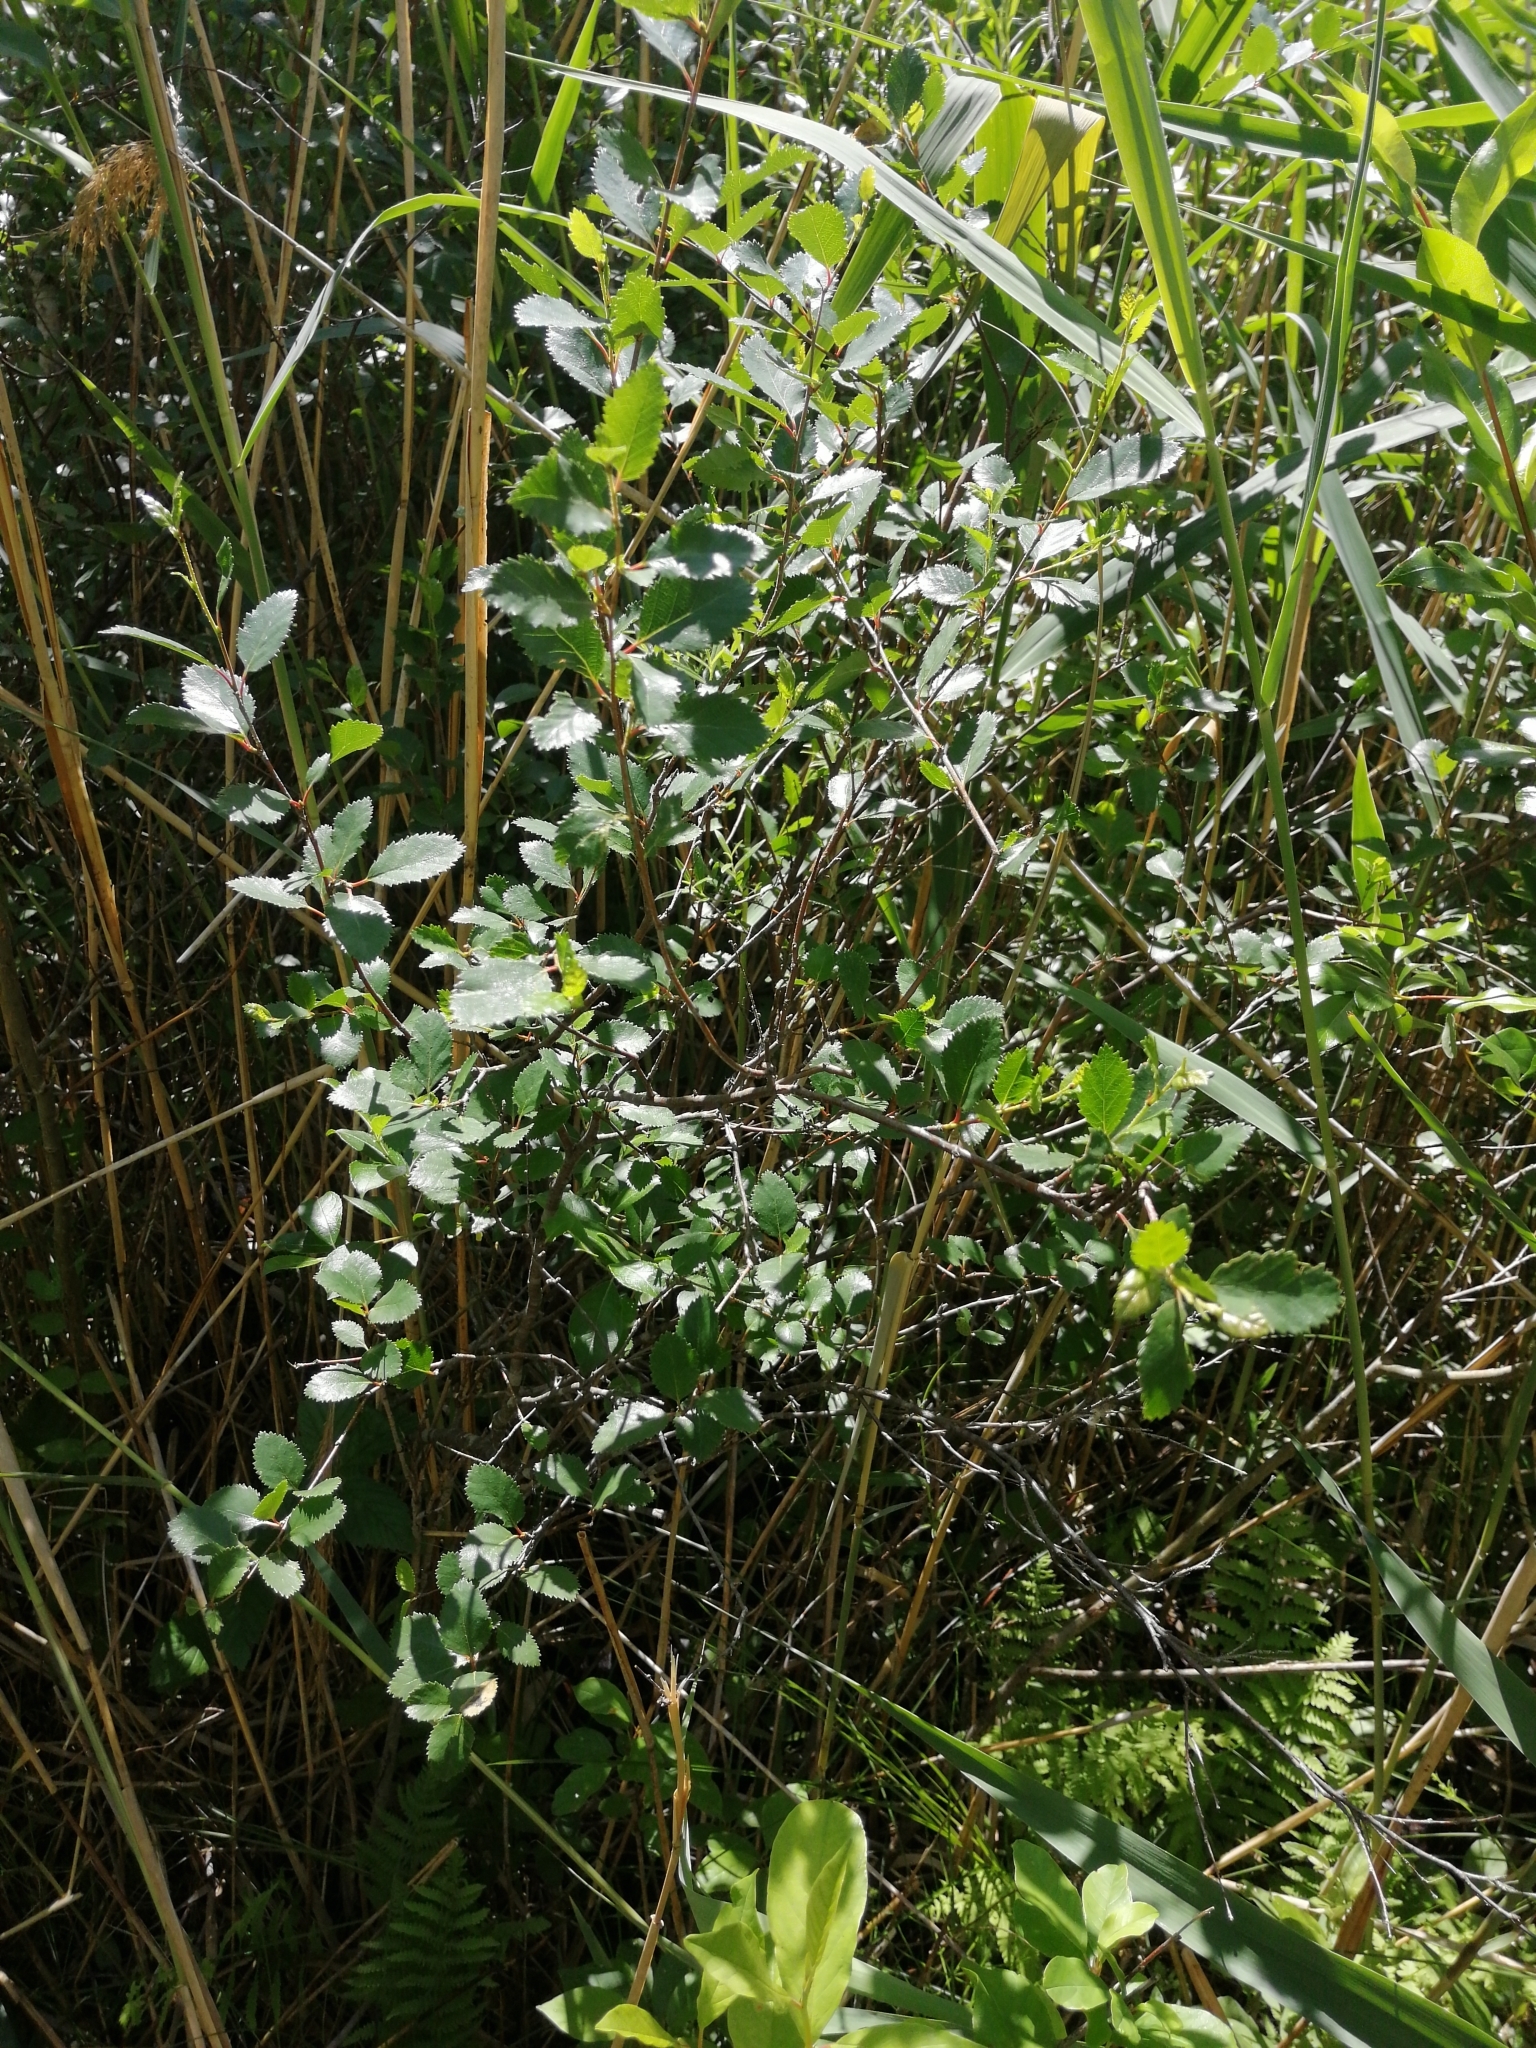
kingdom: Plantae
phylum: Tracheophyta
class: Magnoliopsida
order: Fagales
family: Betulaceae
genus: Betula
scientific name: Betula humilis
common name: Shrubby birch
